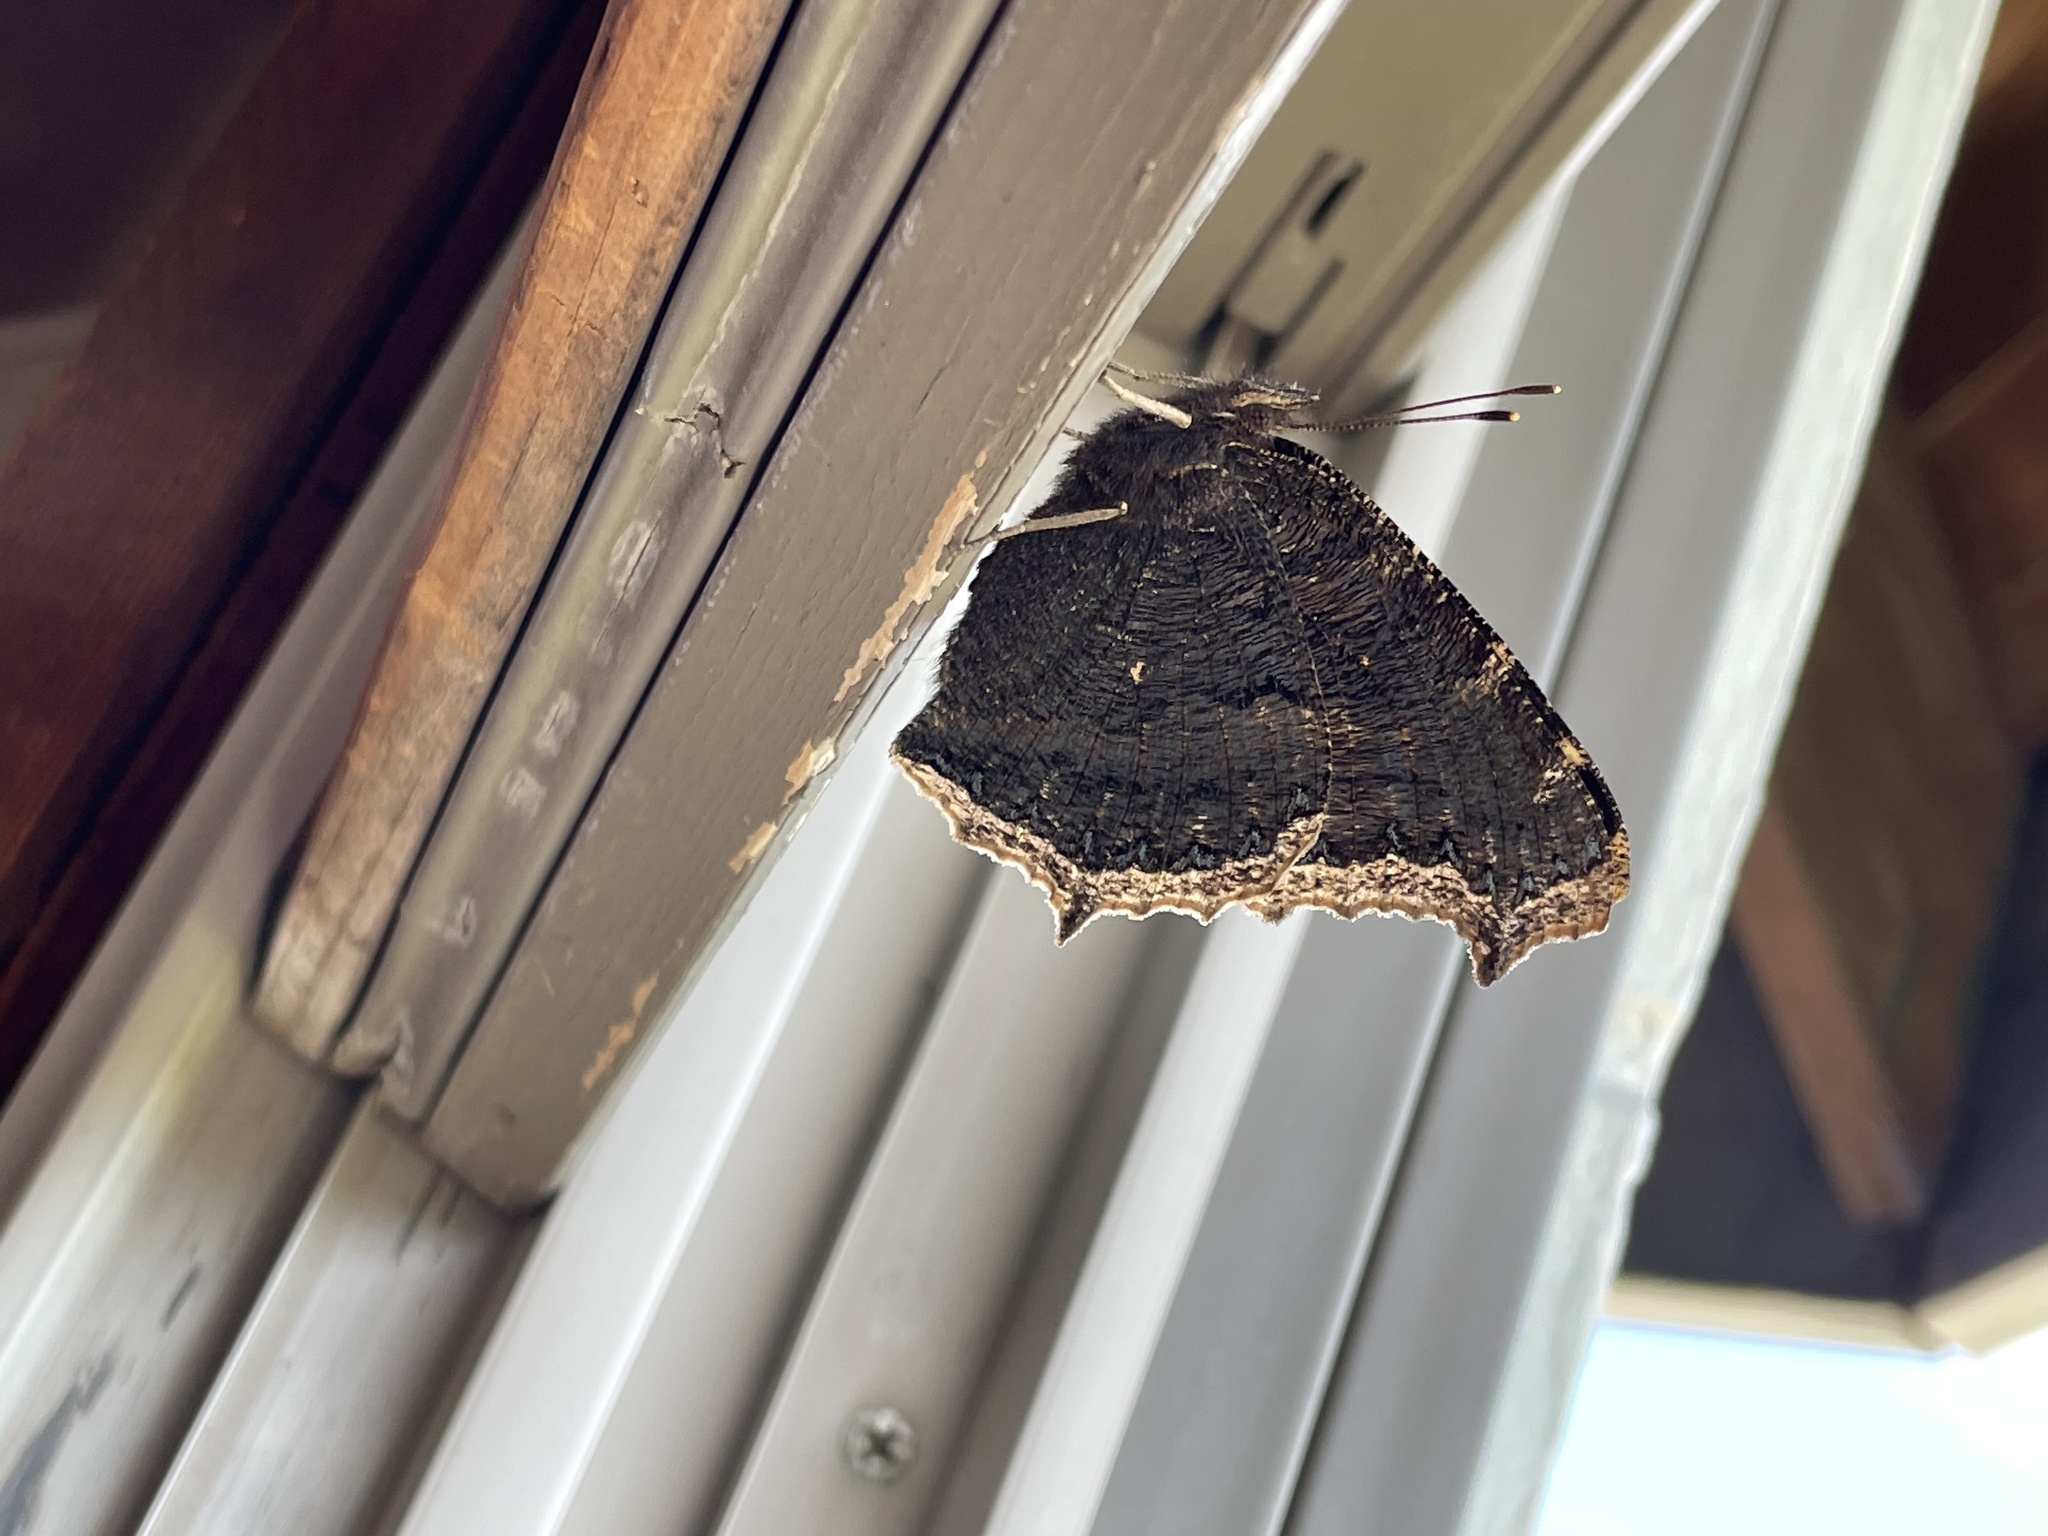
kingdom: Animalia
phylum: Arthropoda
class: Insecta
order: Lepidoptera
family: Nymphalidae
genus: Nymphalis
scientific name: Nymphalis antiopa
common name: Camberwell beauty
